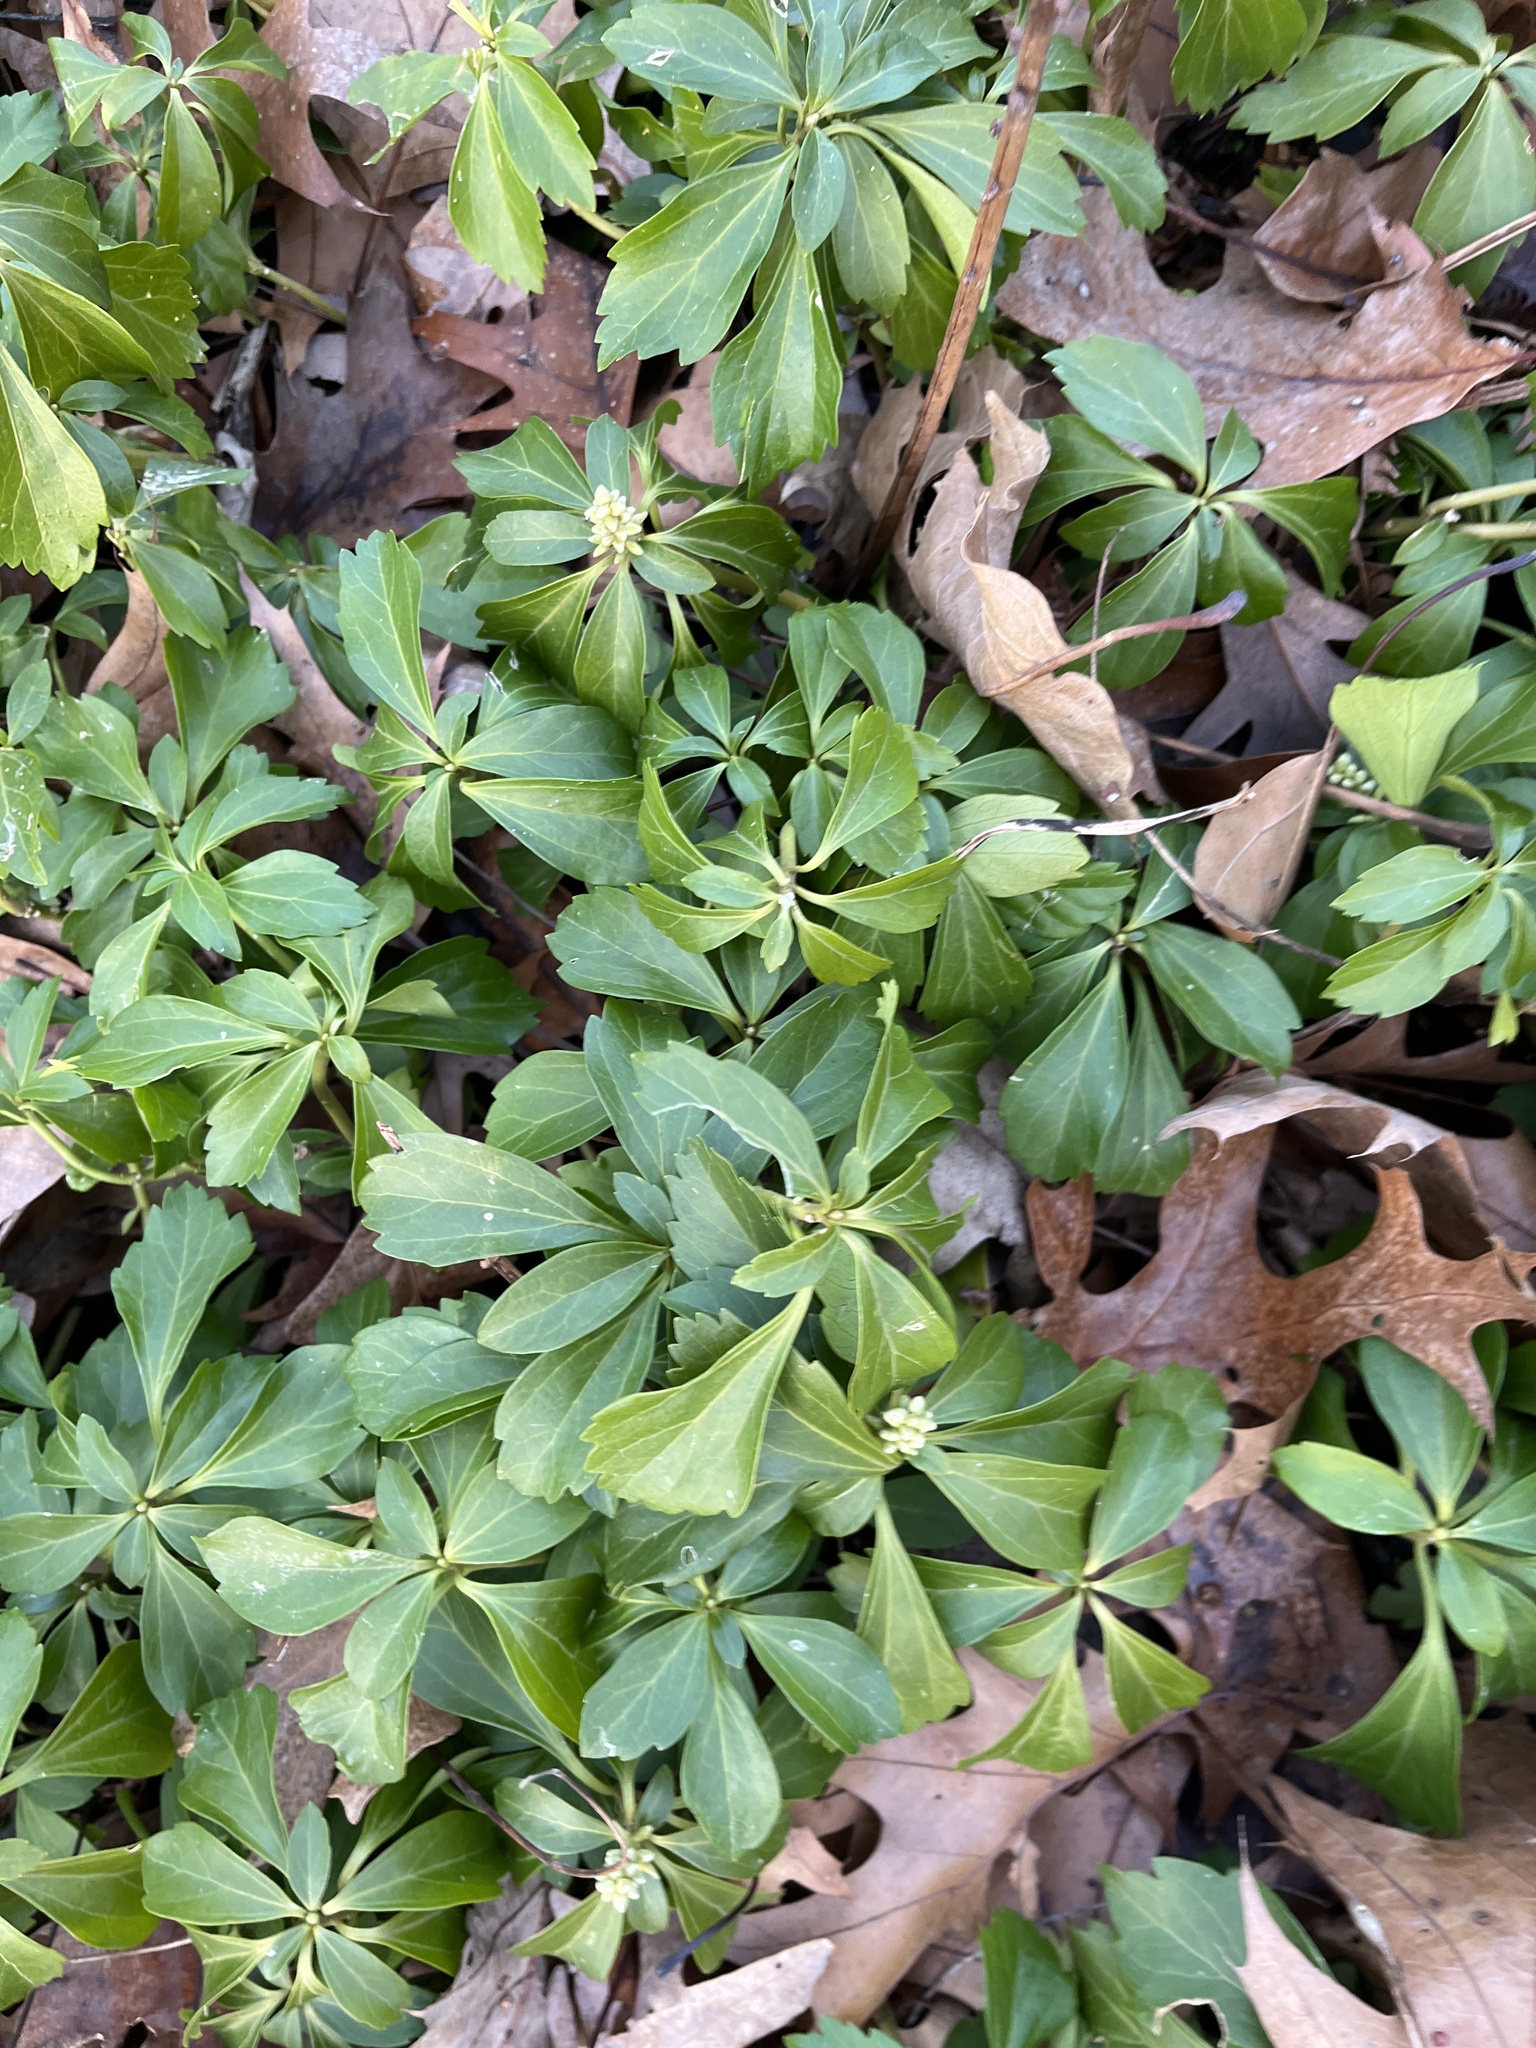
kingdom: Plantae
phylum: Tracheophyta
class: Magnoliopsida
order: Buxales
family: Buxaceae
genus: Pachysandra
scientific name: Pachysandra terminalis
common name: Japanese pachysandra
